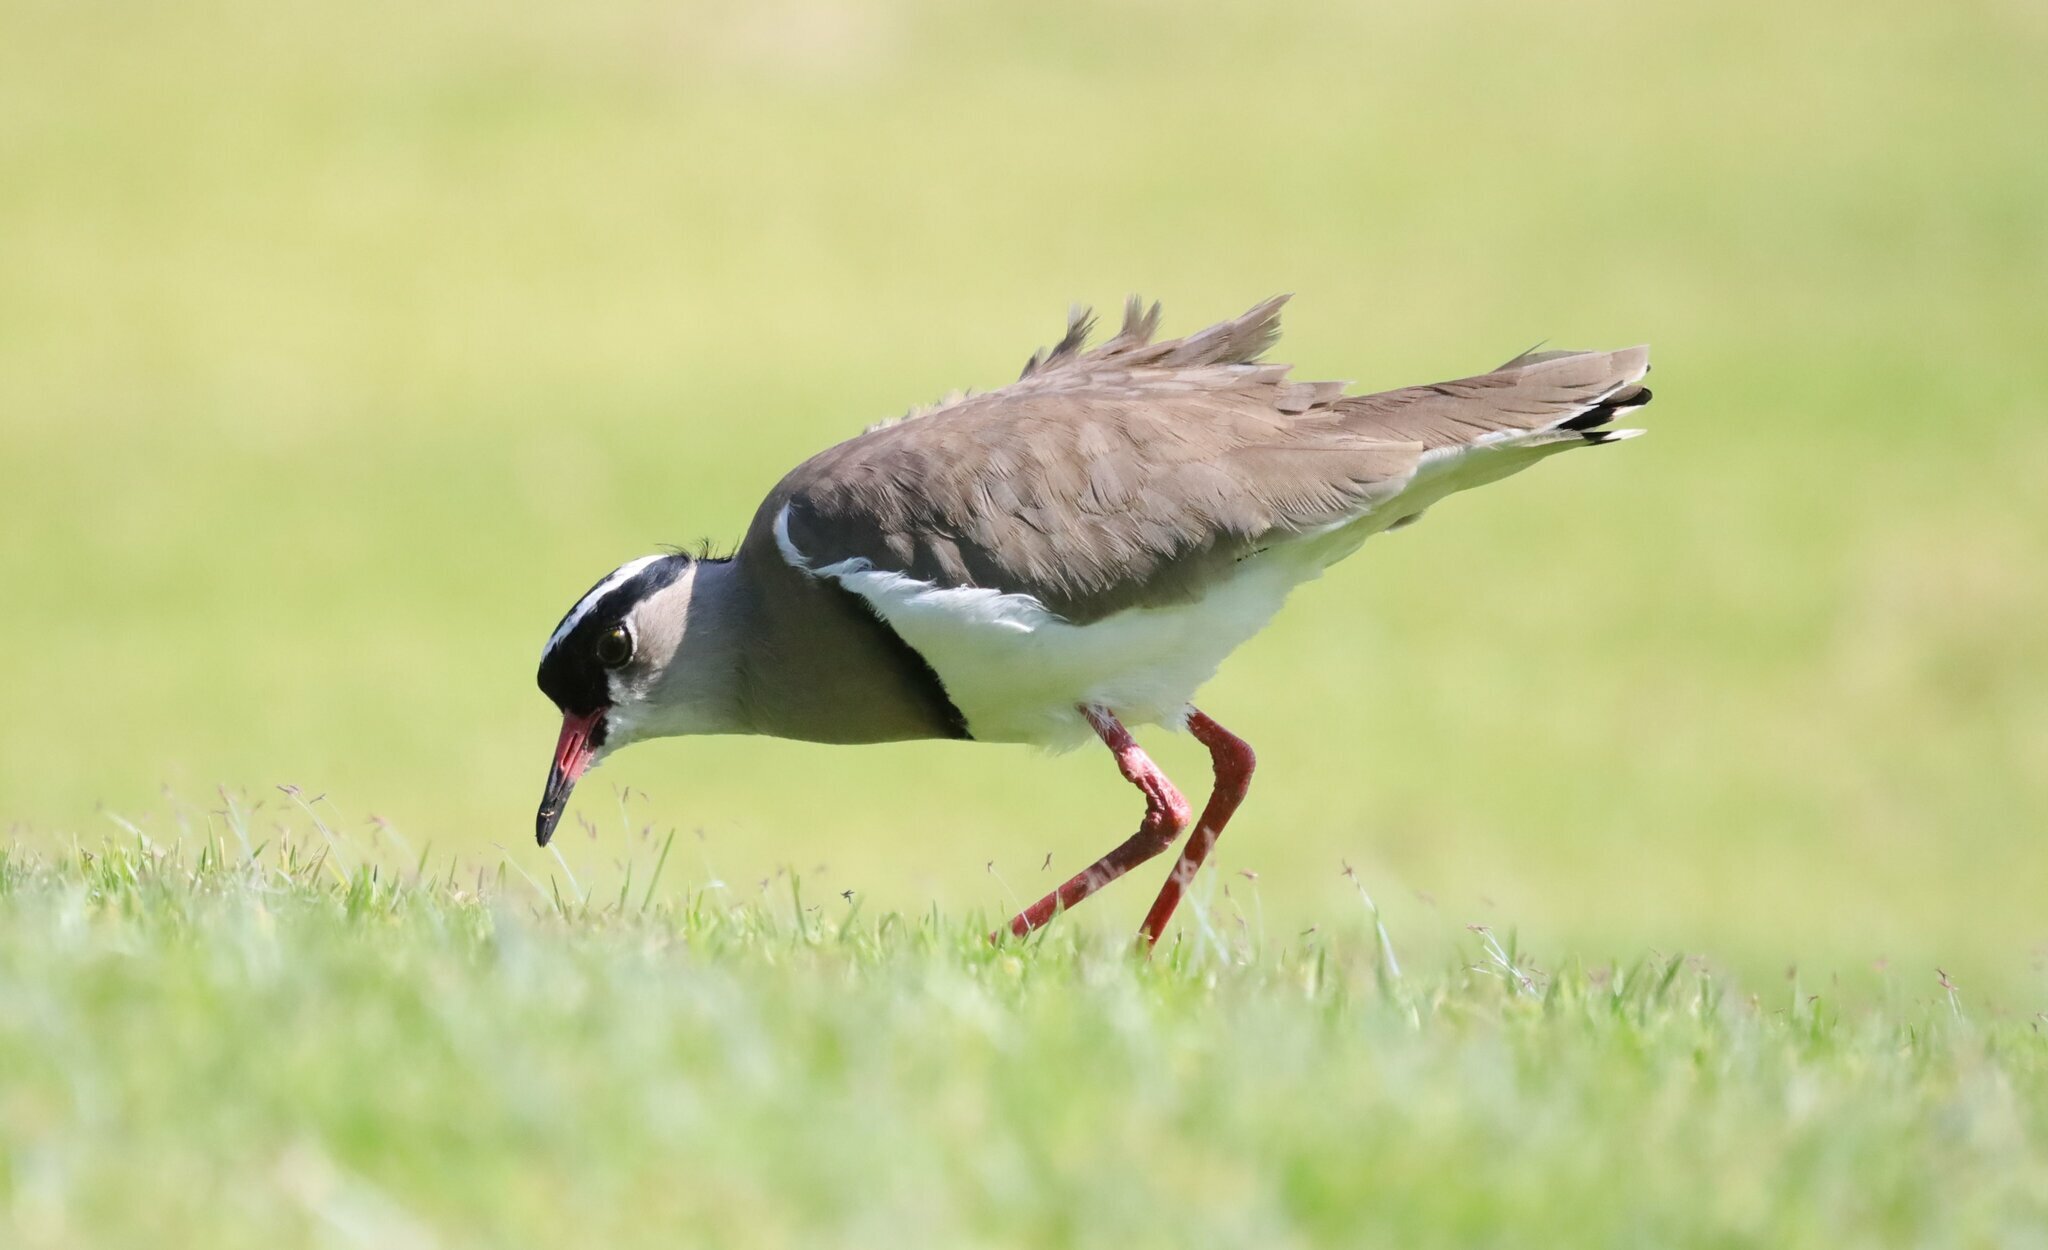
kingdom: Animalia
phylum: Chordata
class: Aves
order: Charadriiformes
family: Charadriidae
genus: Vanellus
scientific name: Vanellus coronatus
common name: Crowned lapwing
